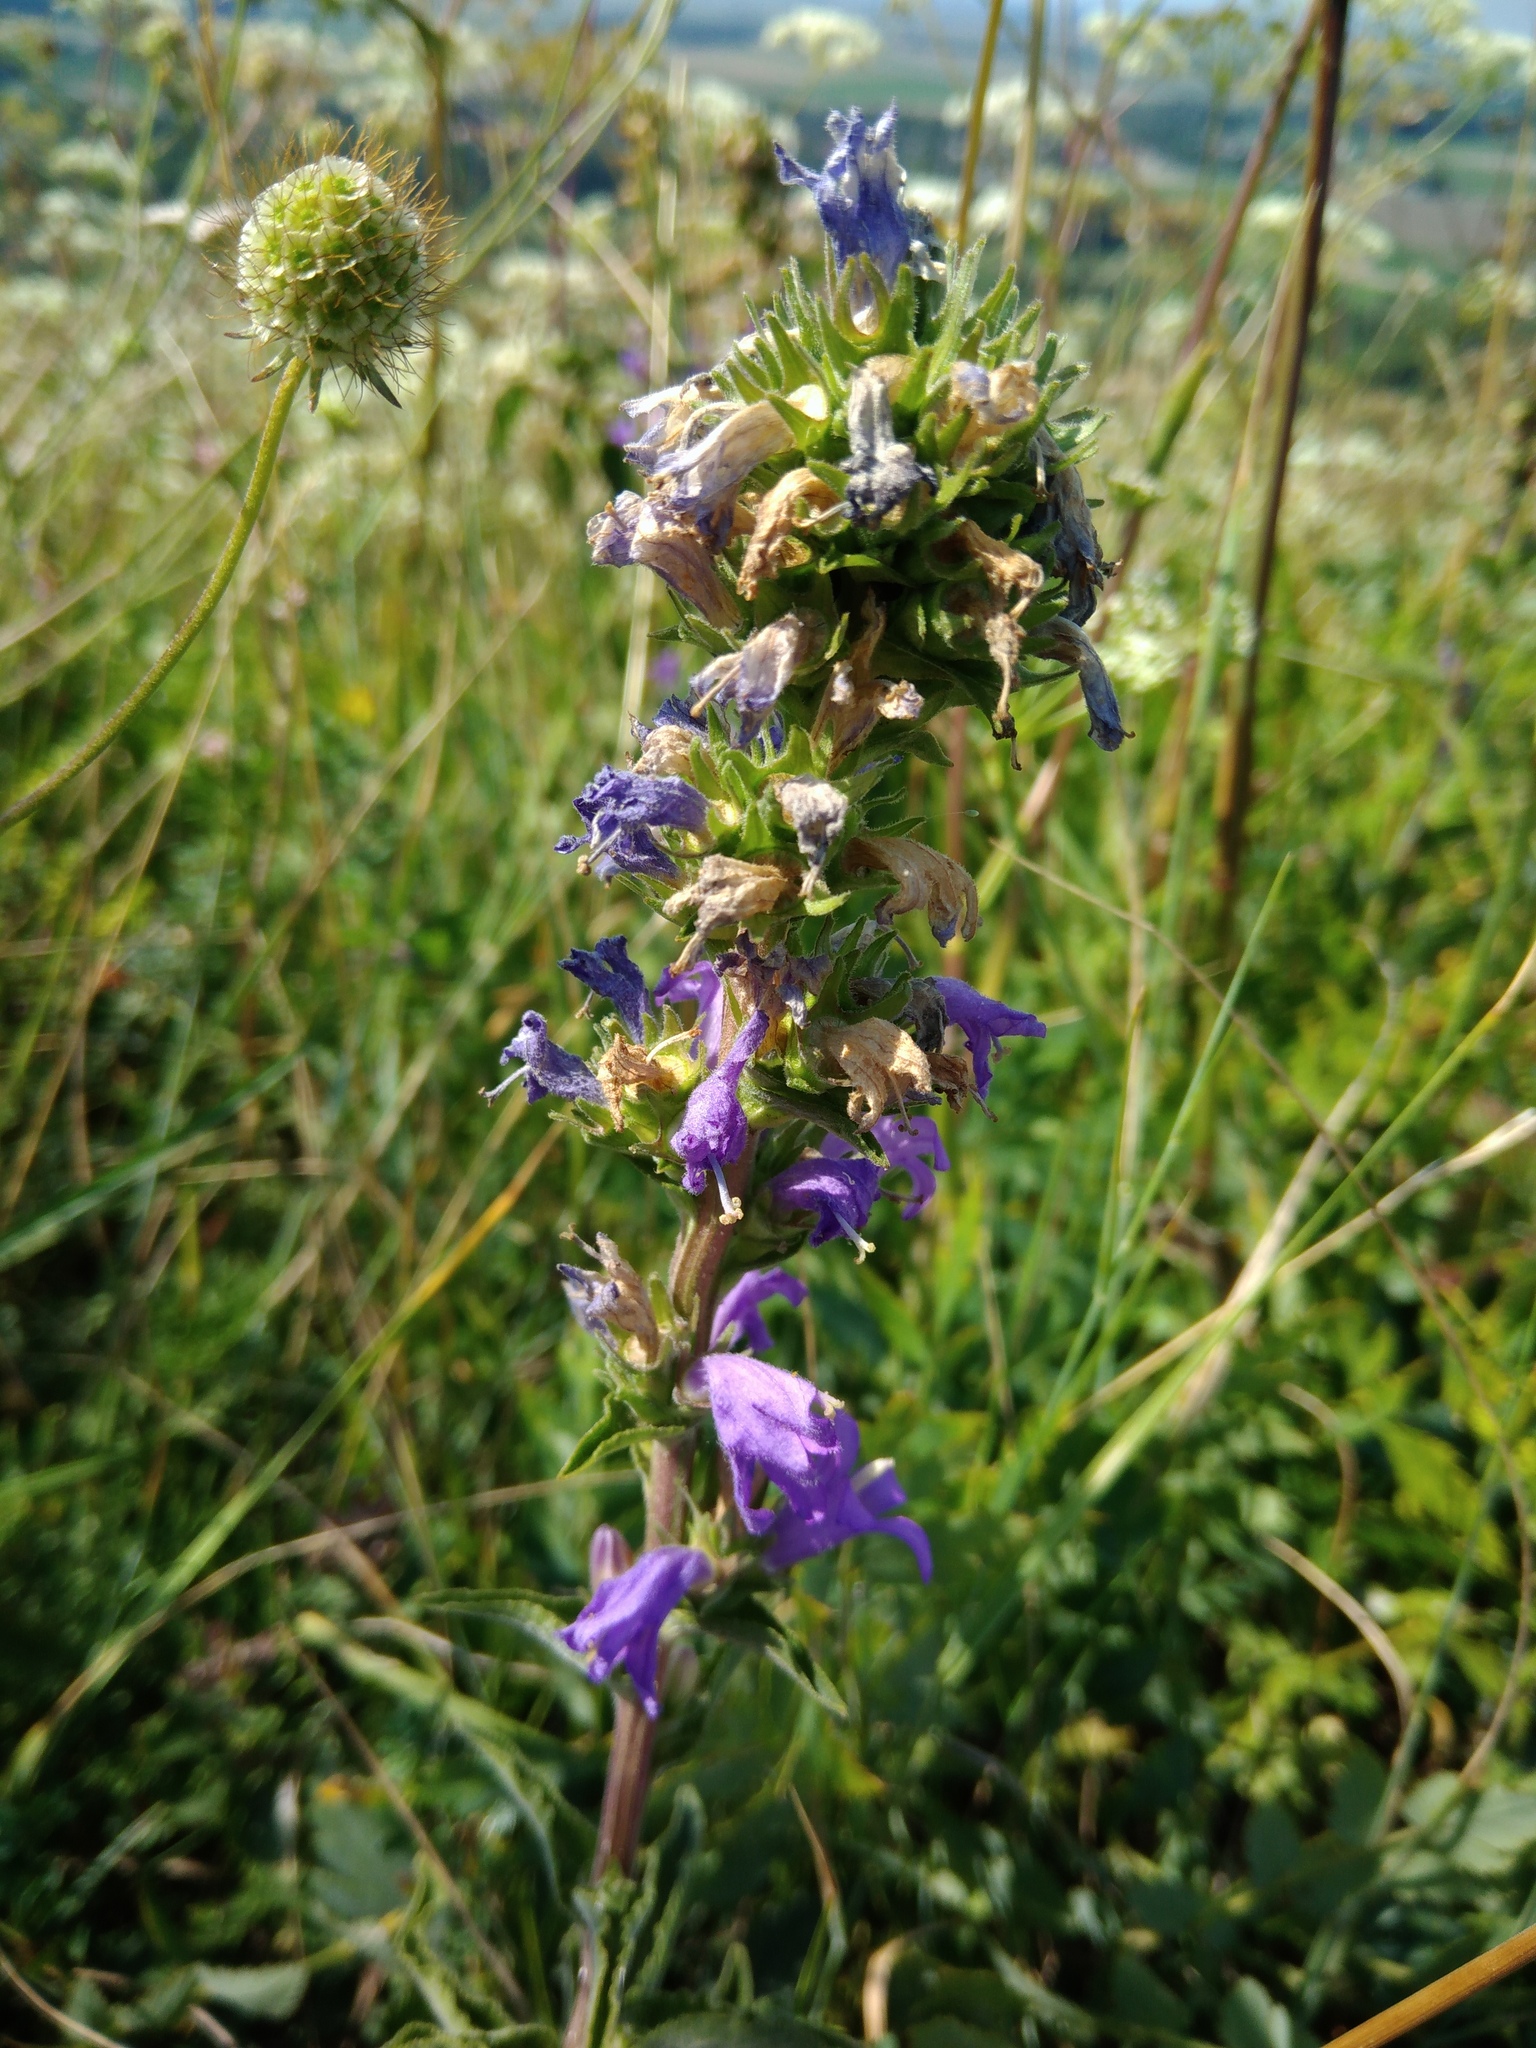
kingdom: Plantae
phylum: Tracheophyta
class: Magnoliopsida
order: Asterales
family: Campanulaceae
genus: Campanula
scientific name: Campanula glomerata
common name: Clustered bellflower
